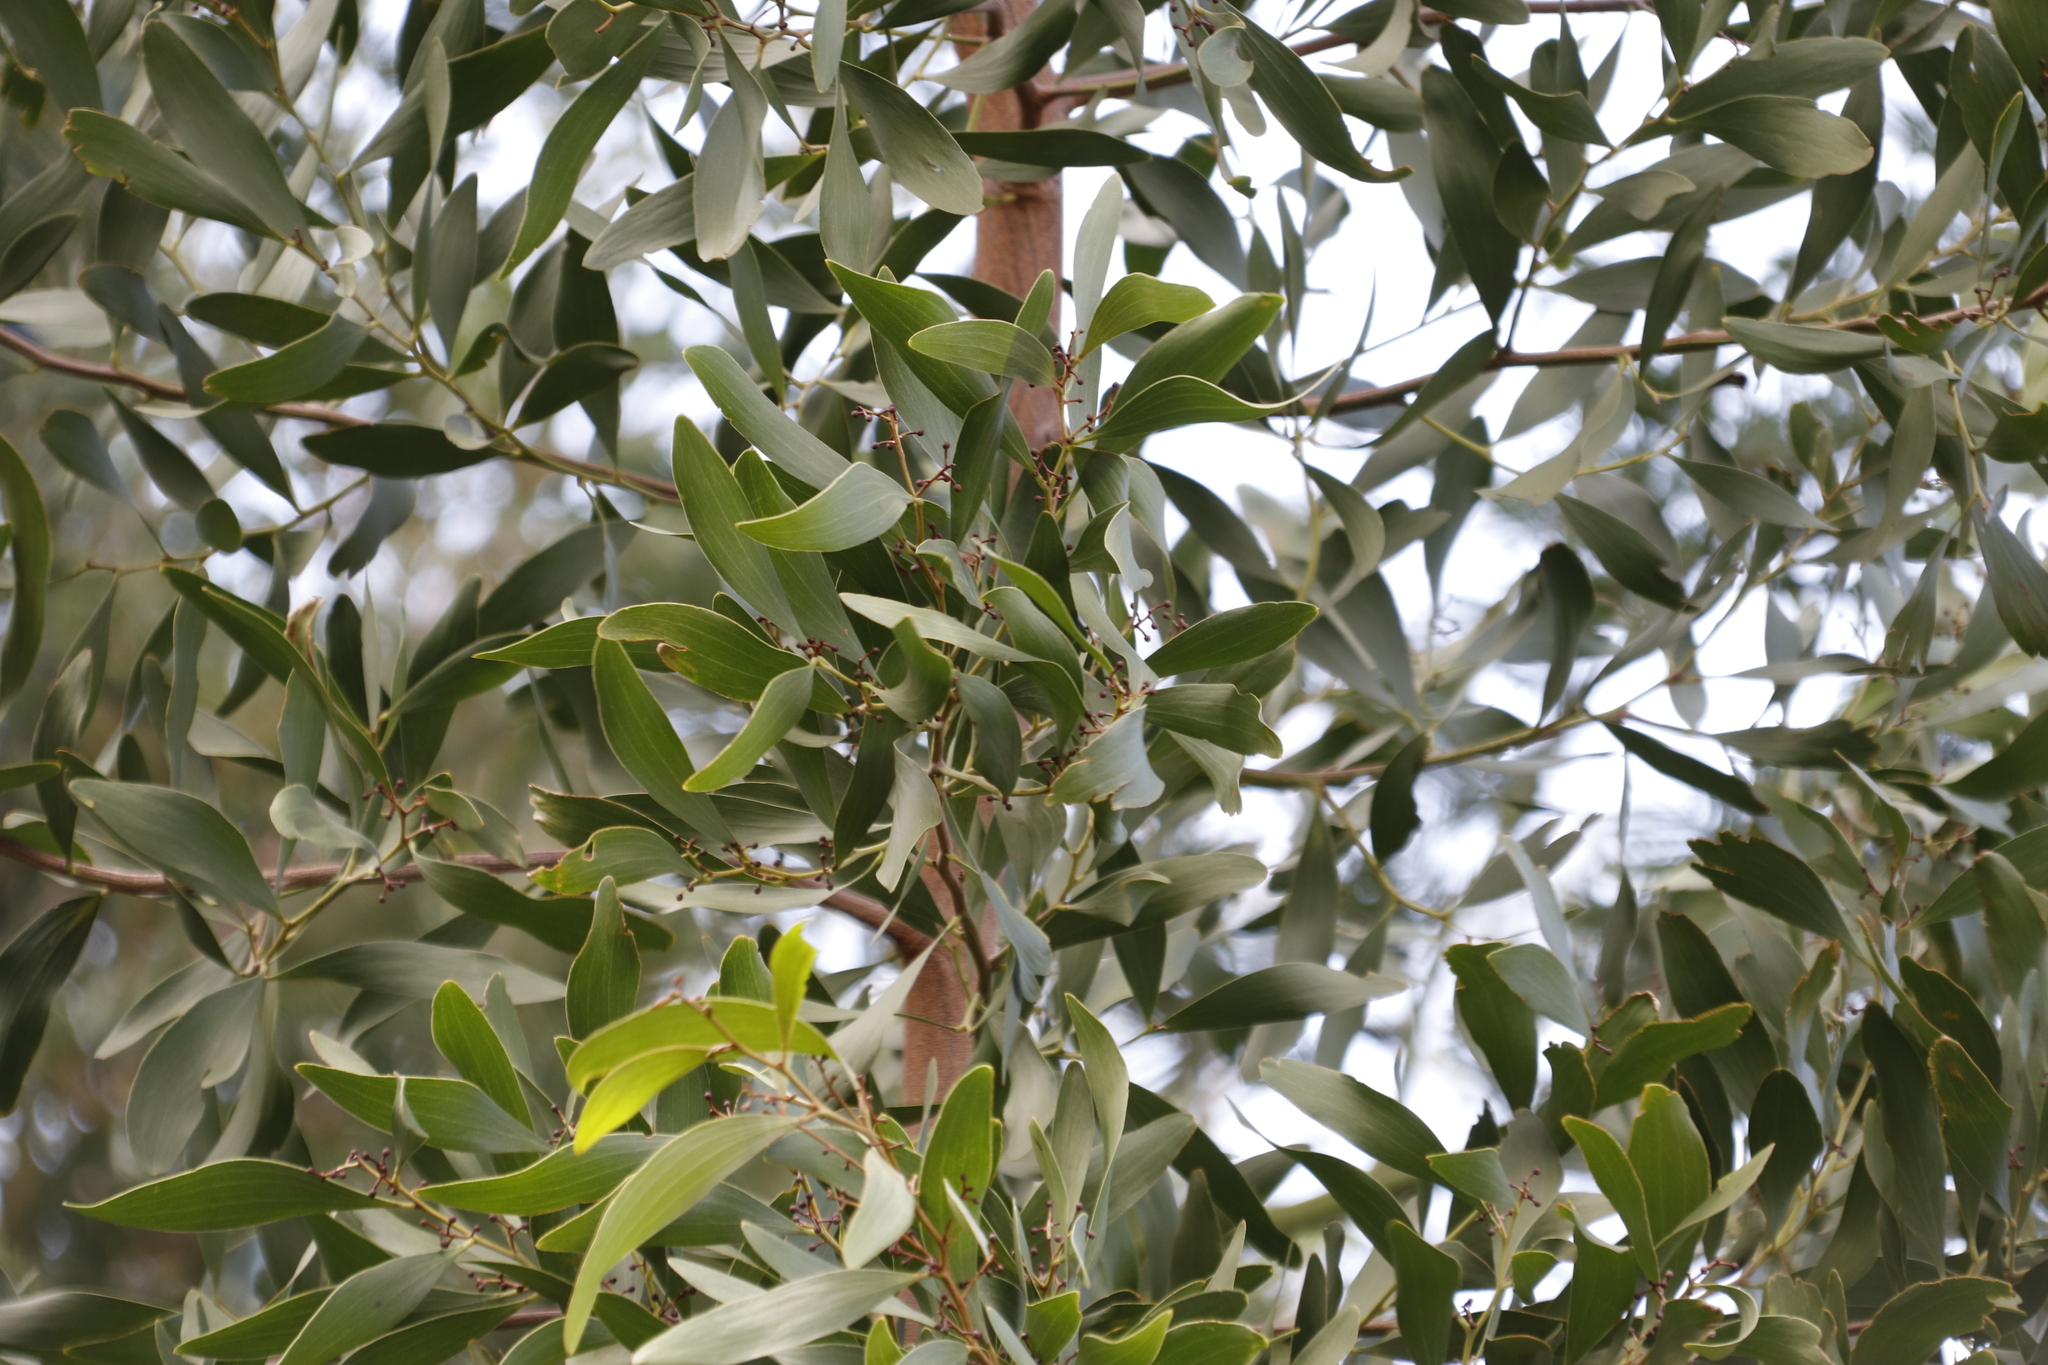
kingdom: Plantae
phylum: Tracheophyta
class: Magnoliopsida
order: Fabales
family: Fabaceae
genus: Acacia
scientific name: Acacia melanoxylon
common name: Blackwood
